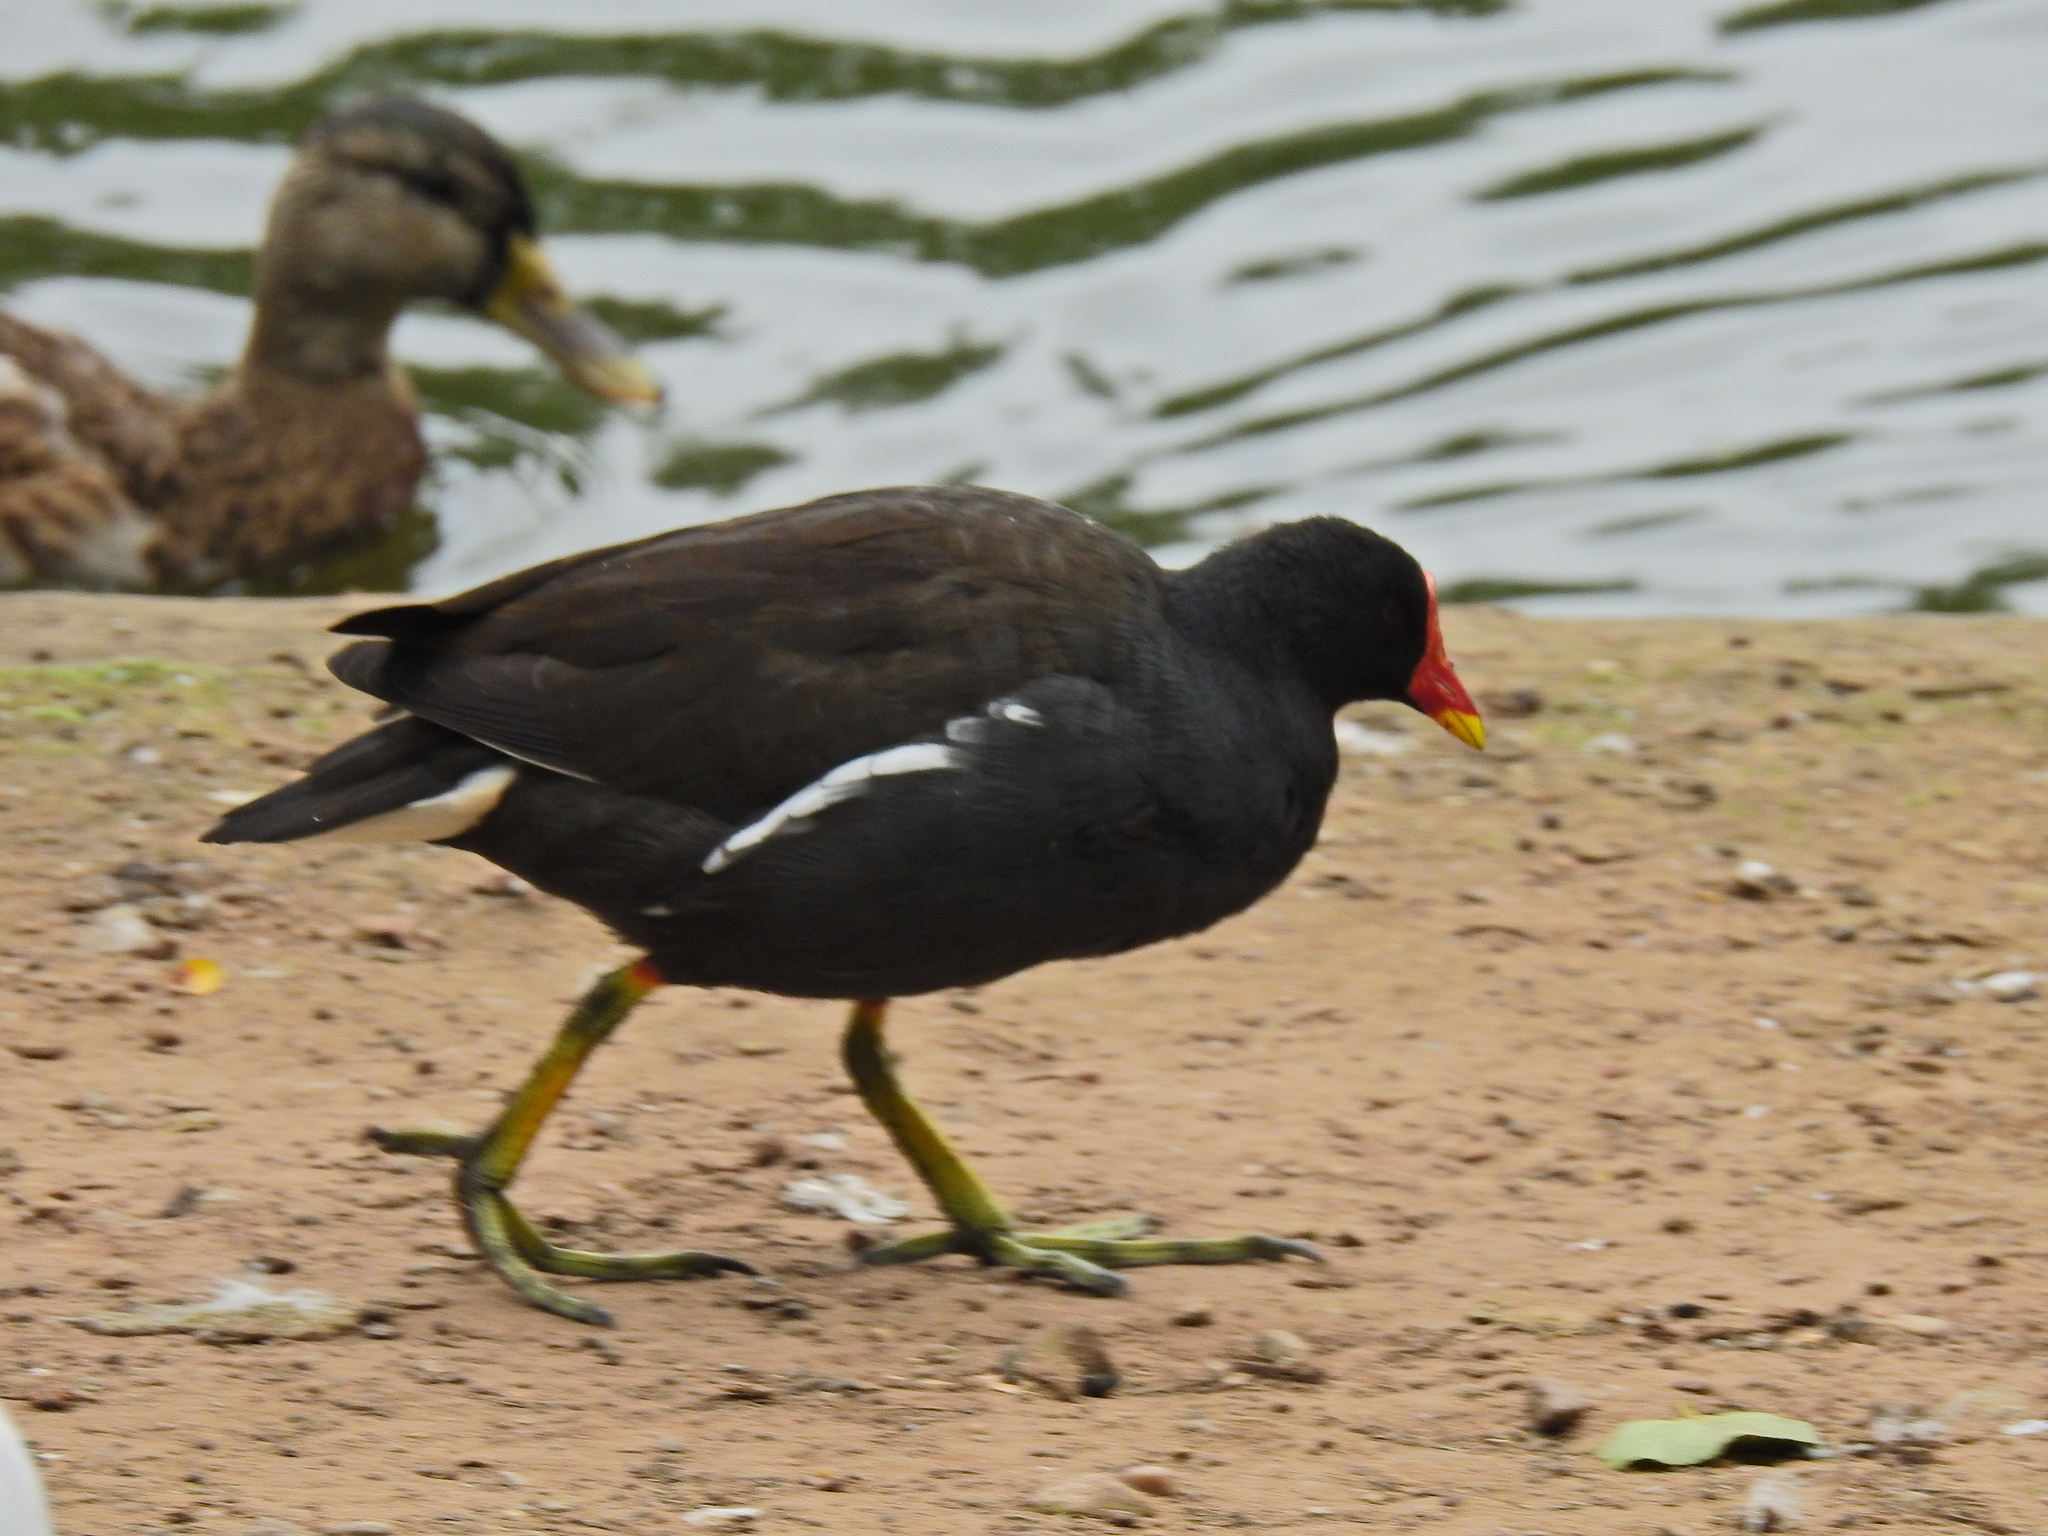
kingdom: Animalia
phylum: Chordata
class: Aves
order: Gruiformes
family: Rallidae
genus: Gallinula
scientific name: Gallinula chloropus
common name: Common moorhen
